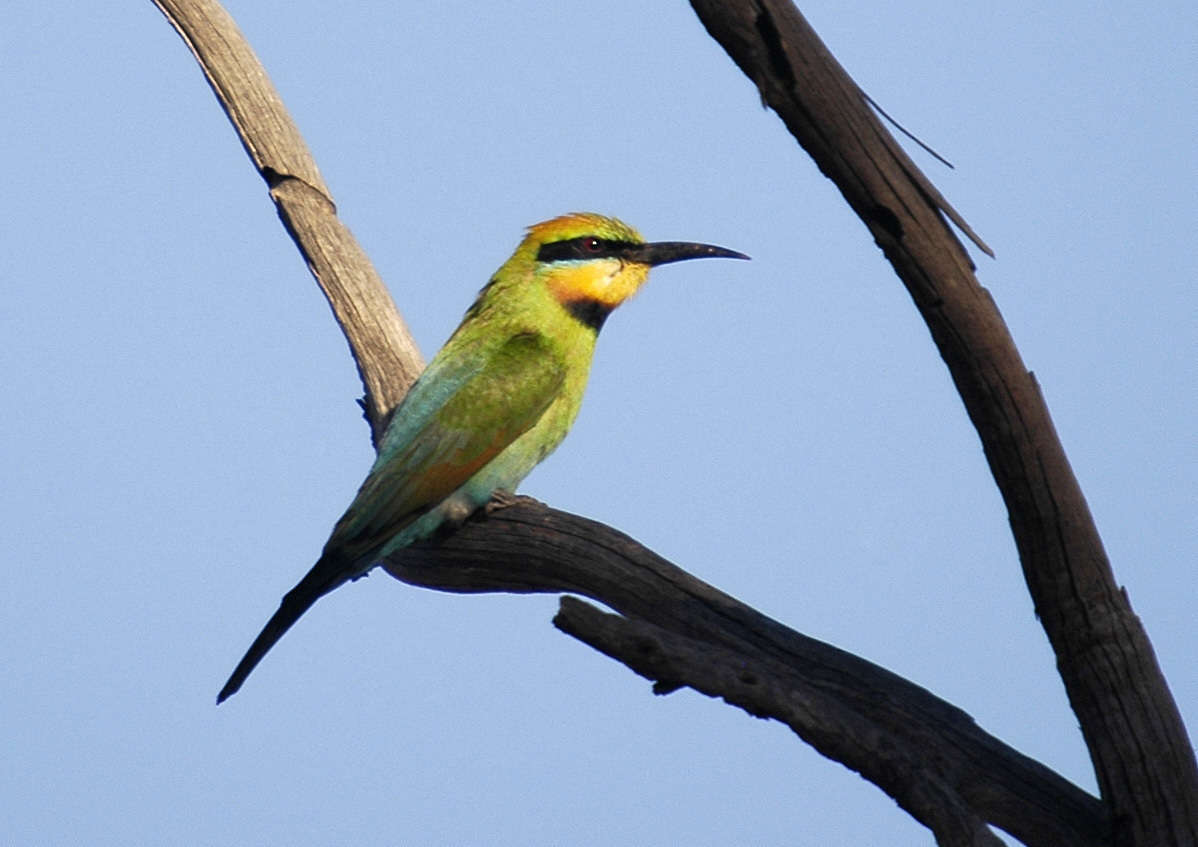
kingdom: Animalia
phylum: Chordata
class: Aves
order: Coraciiformes
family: Meropidae
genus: Merops
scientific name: Merops ornatus
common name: Rainbow bee-eater
